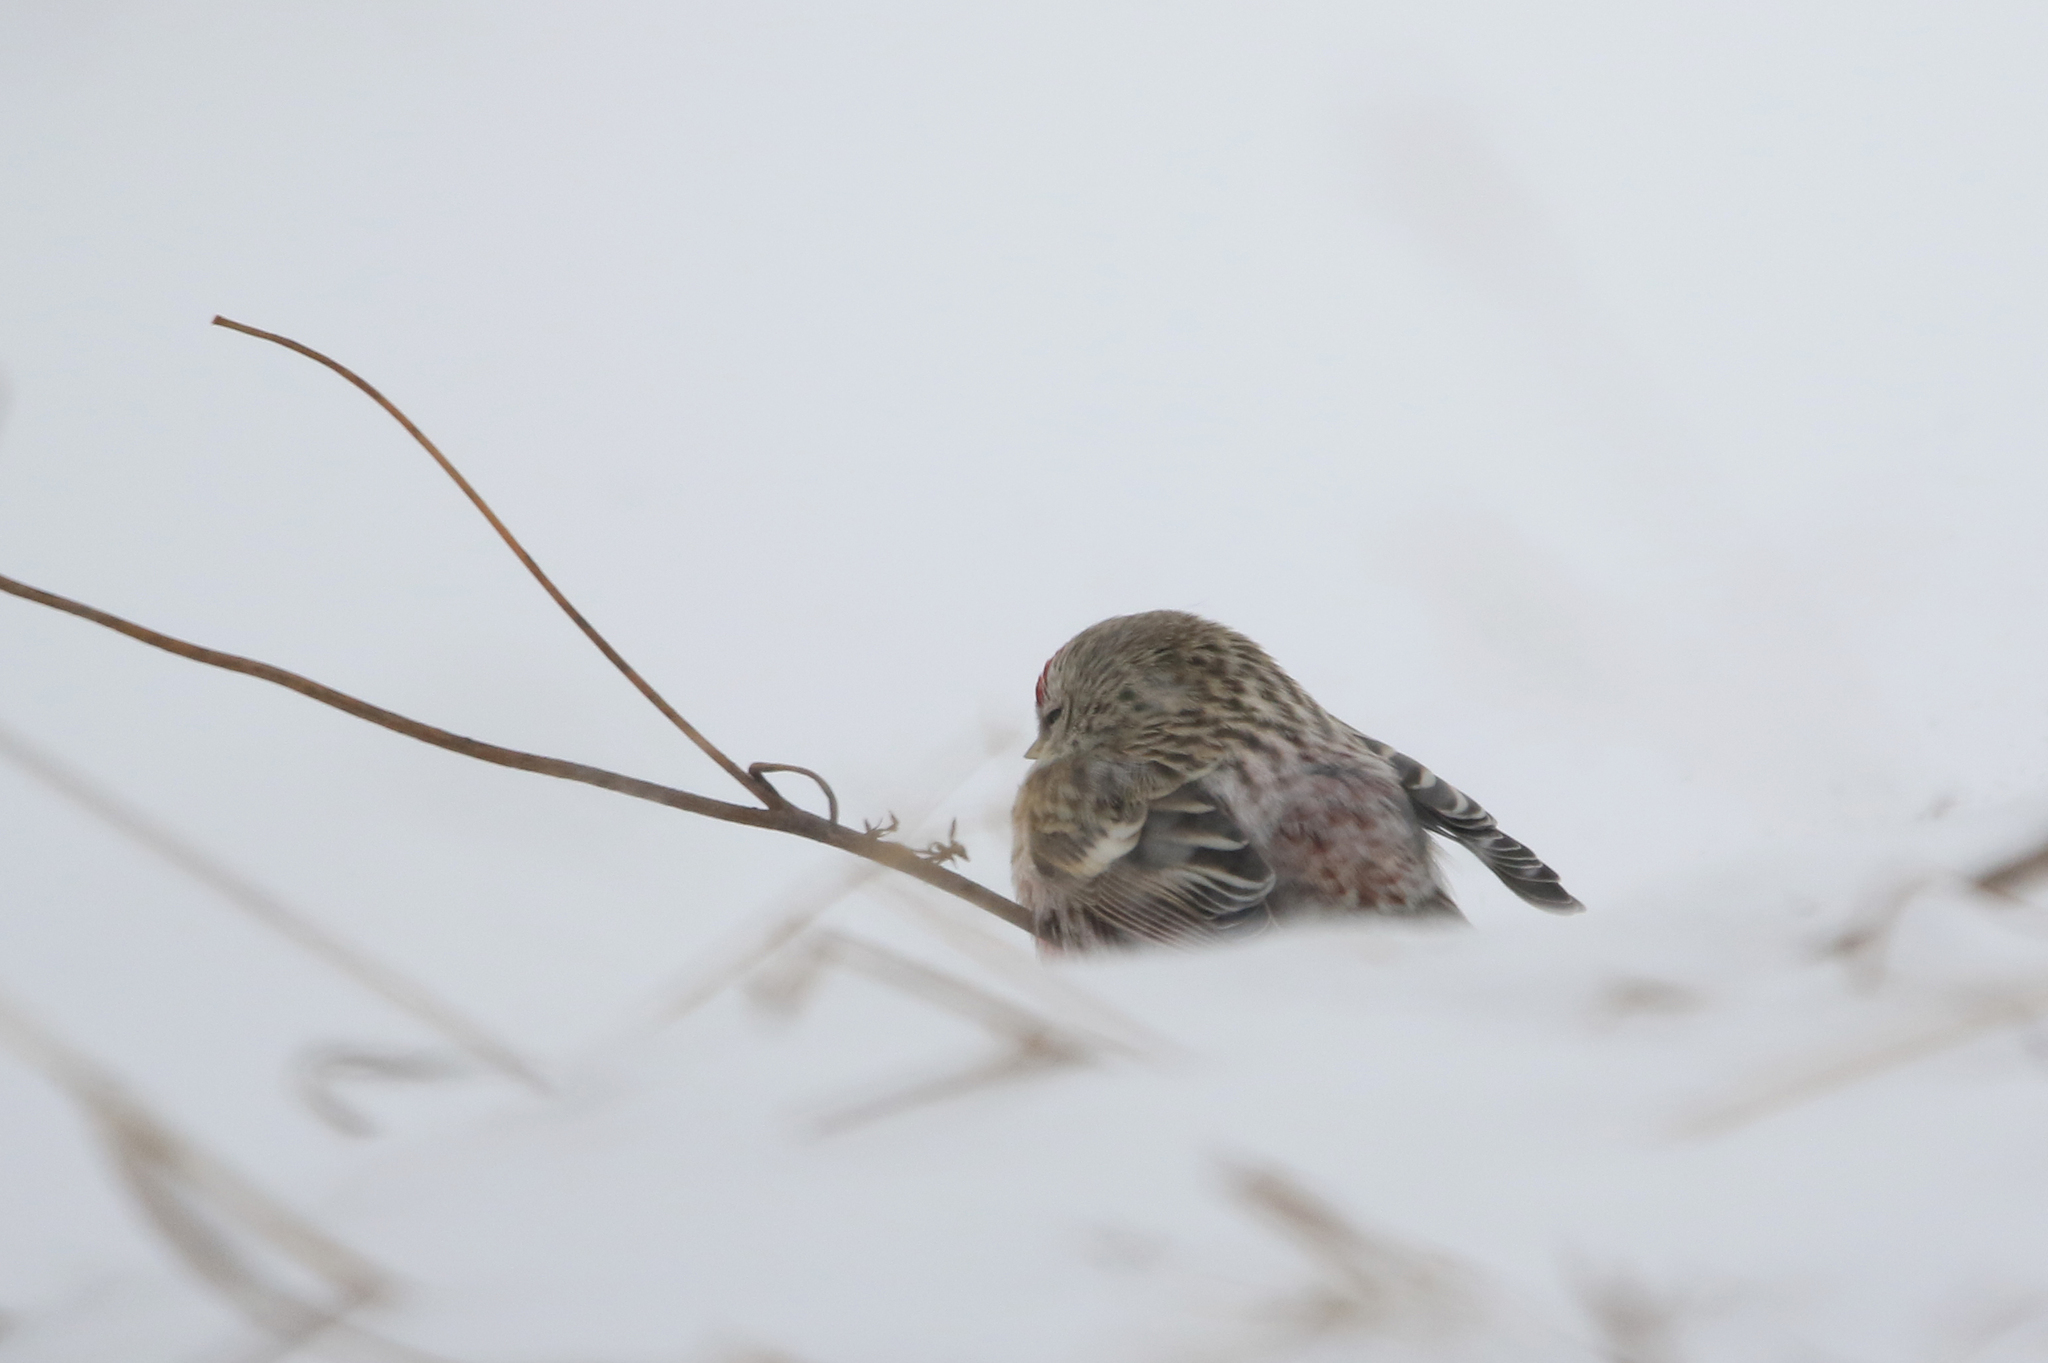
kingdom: Animalia
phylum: Chordata
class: Aves
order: Passeriformes
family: Fringillidae
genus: Acanthis
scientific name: Acanthis flammea
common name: Common redpoll
